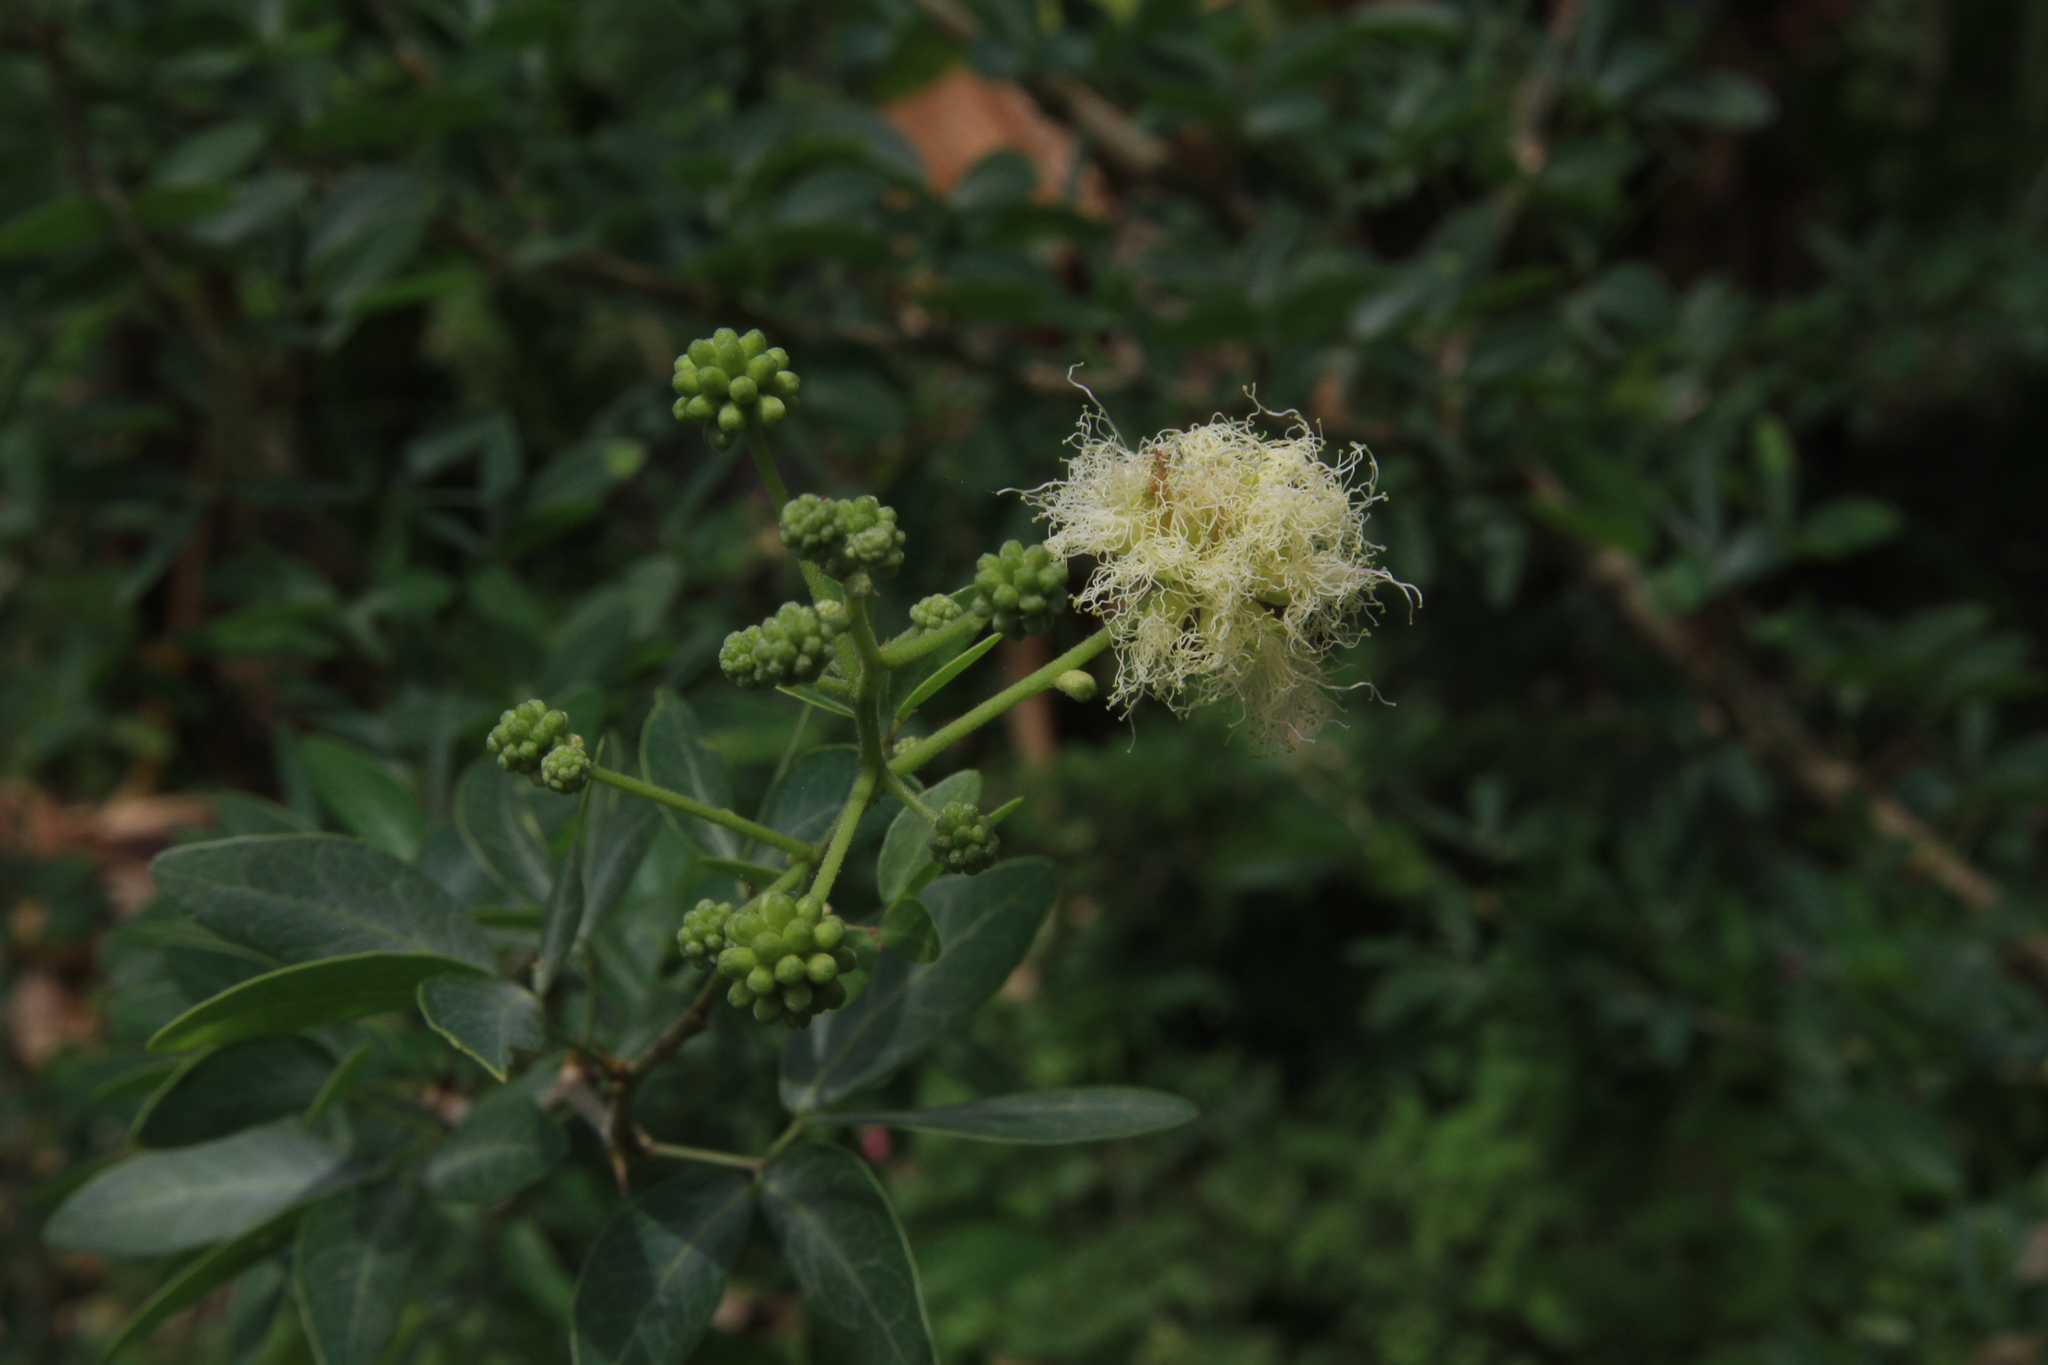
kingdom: Plantae
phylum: Tracheophyta
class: Magnoliopsida
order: Fabales
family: Fabaceae
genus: Pithecellobium
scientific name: Pithecellobium dulce
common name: Monkeypod
